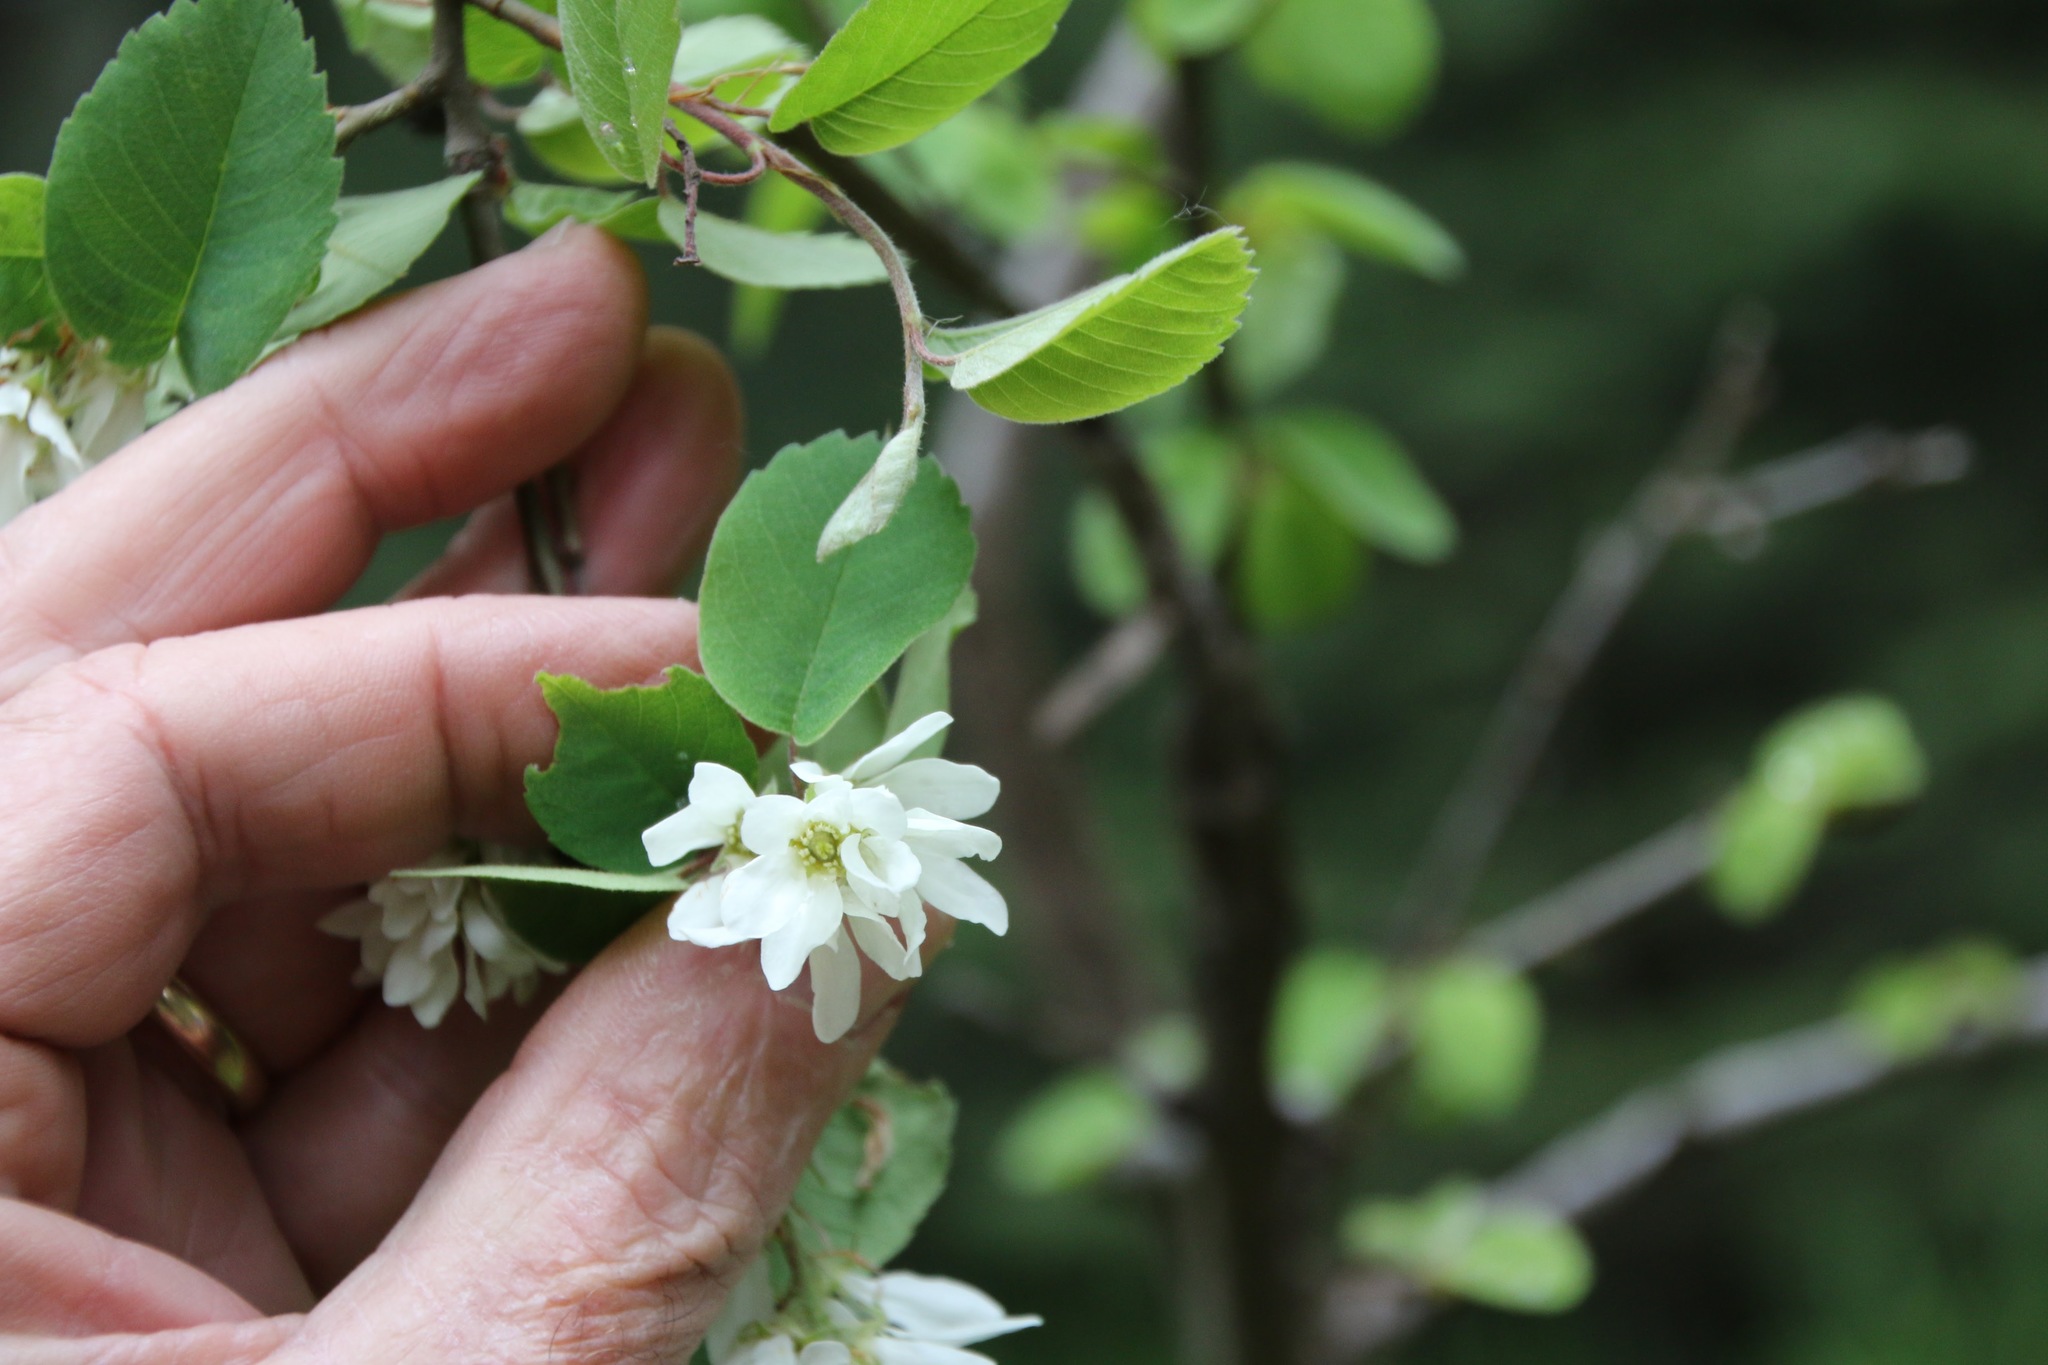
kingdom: Plantae
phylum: Tracheophyta
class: Magnoliopsida
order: Rosales
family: Rosaceae
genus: Amelanchier
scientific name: Amelanchier alnifolia
